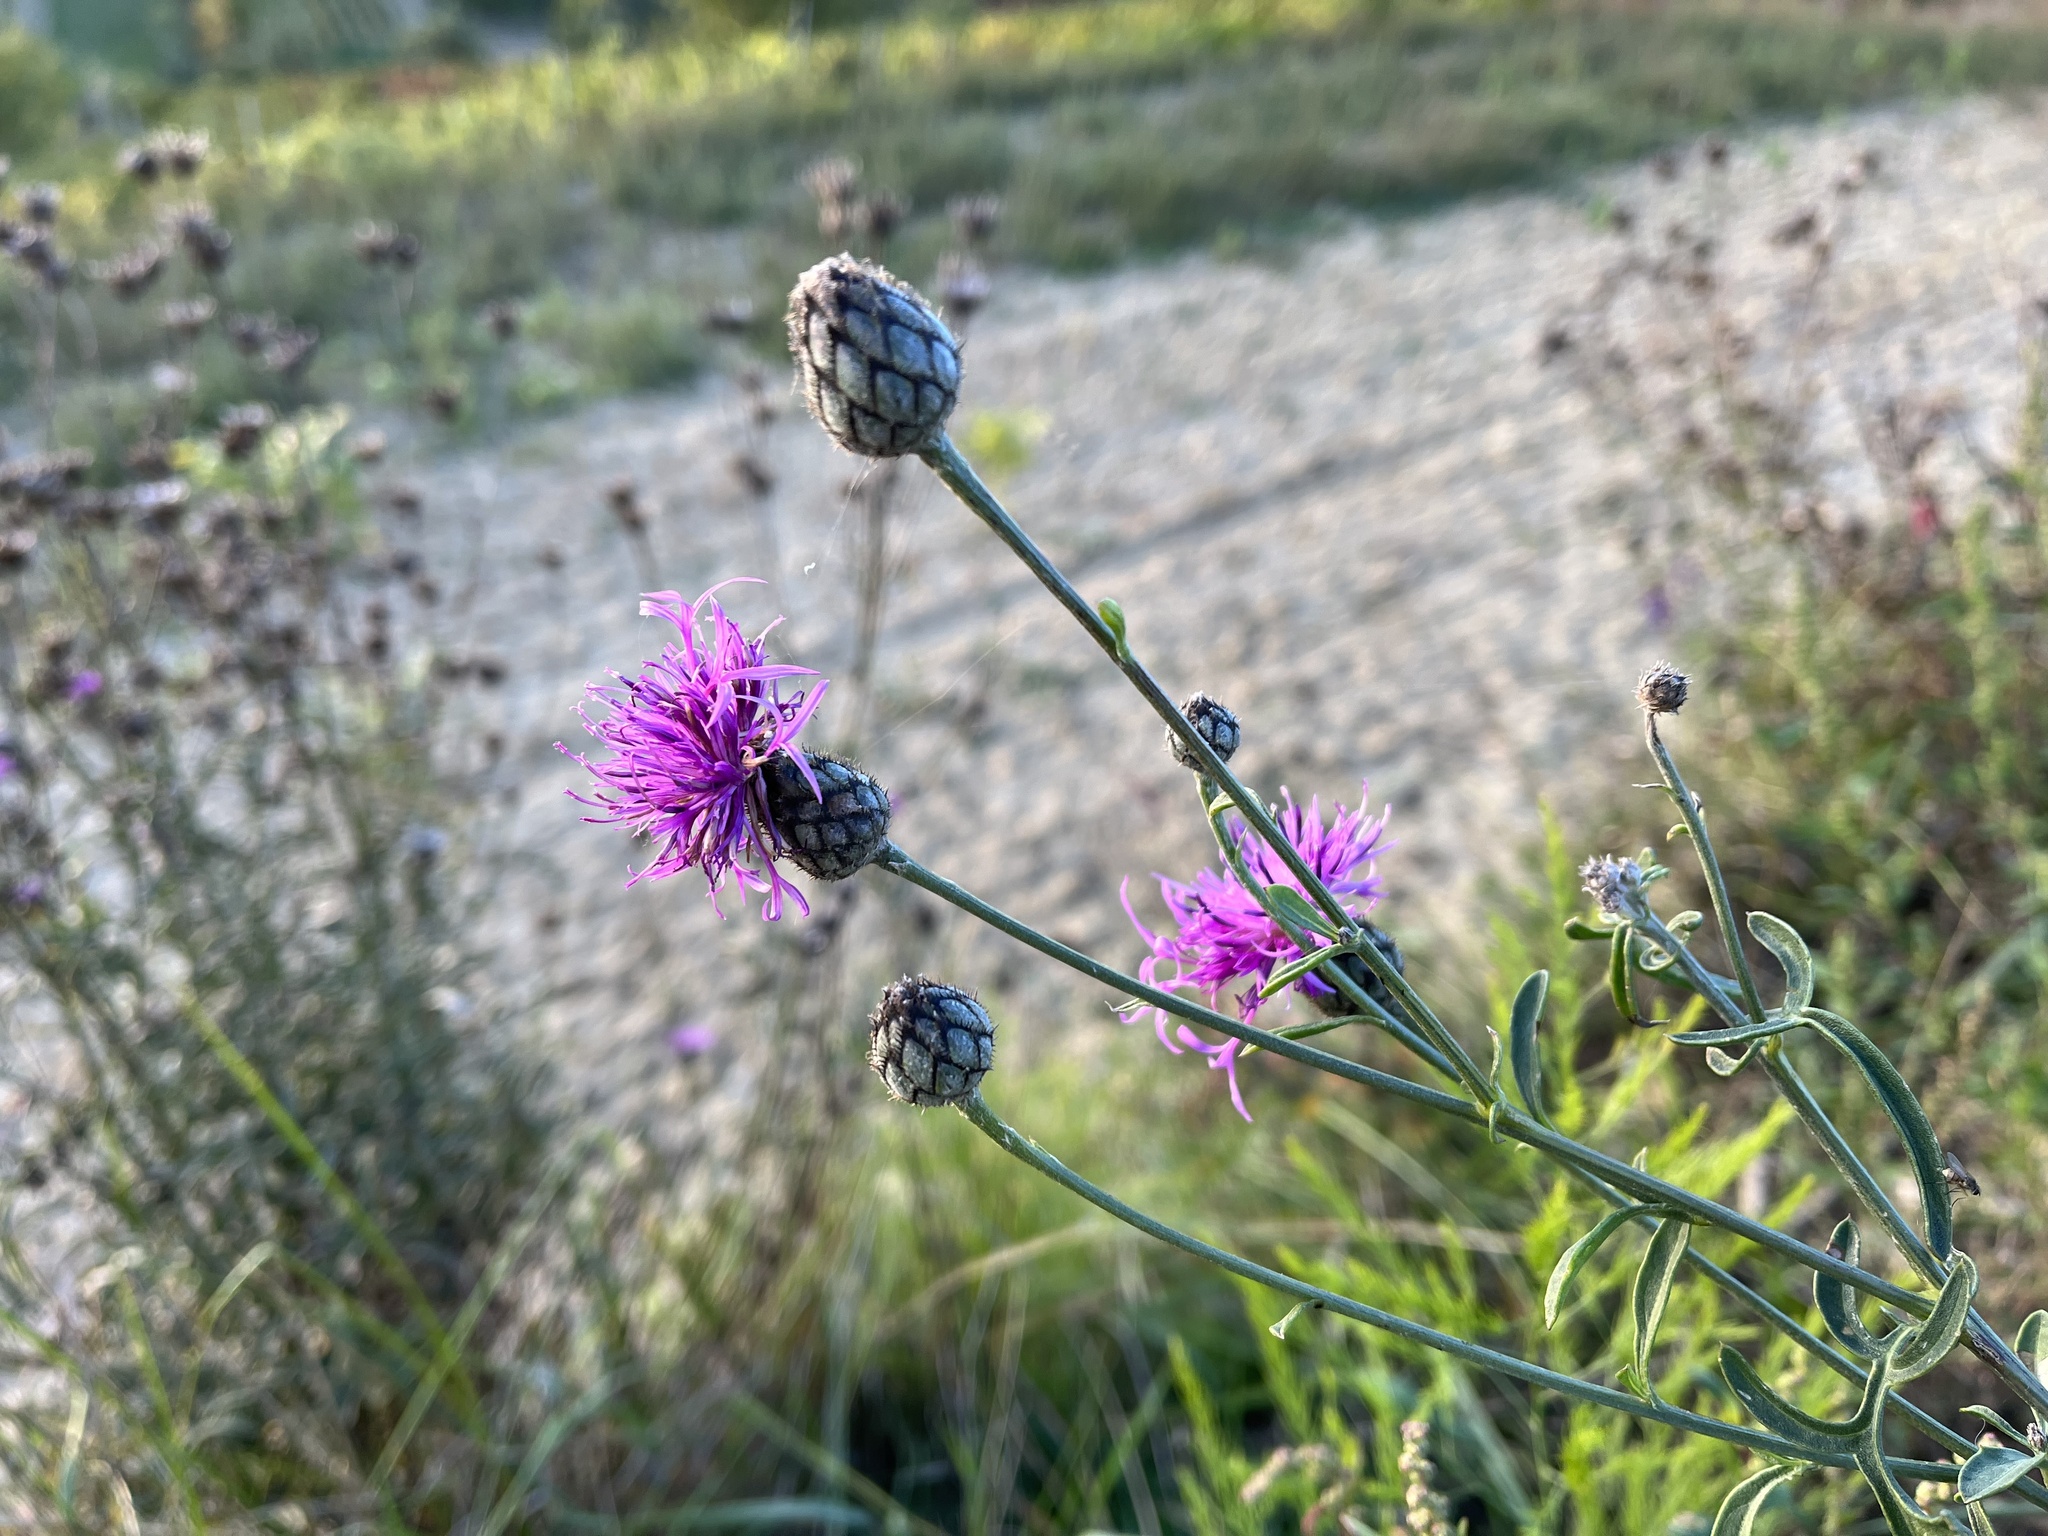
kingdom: Plantae
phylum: Tracheophyta
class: Magnoliopsida
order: Asterales
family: Asteraceae
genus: Centaurea
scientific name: Centaurea scabiosa
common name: Greater knapweed
